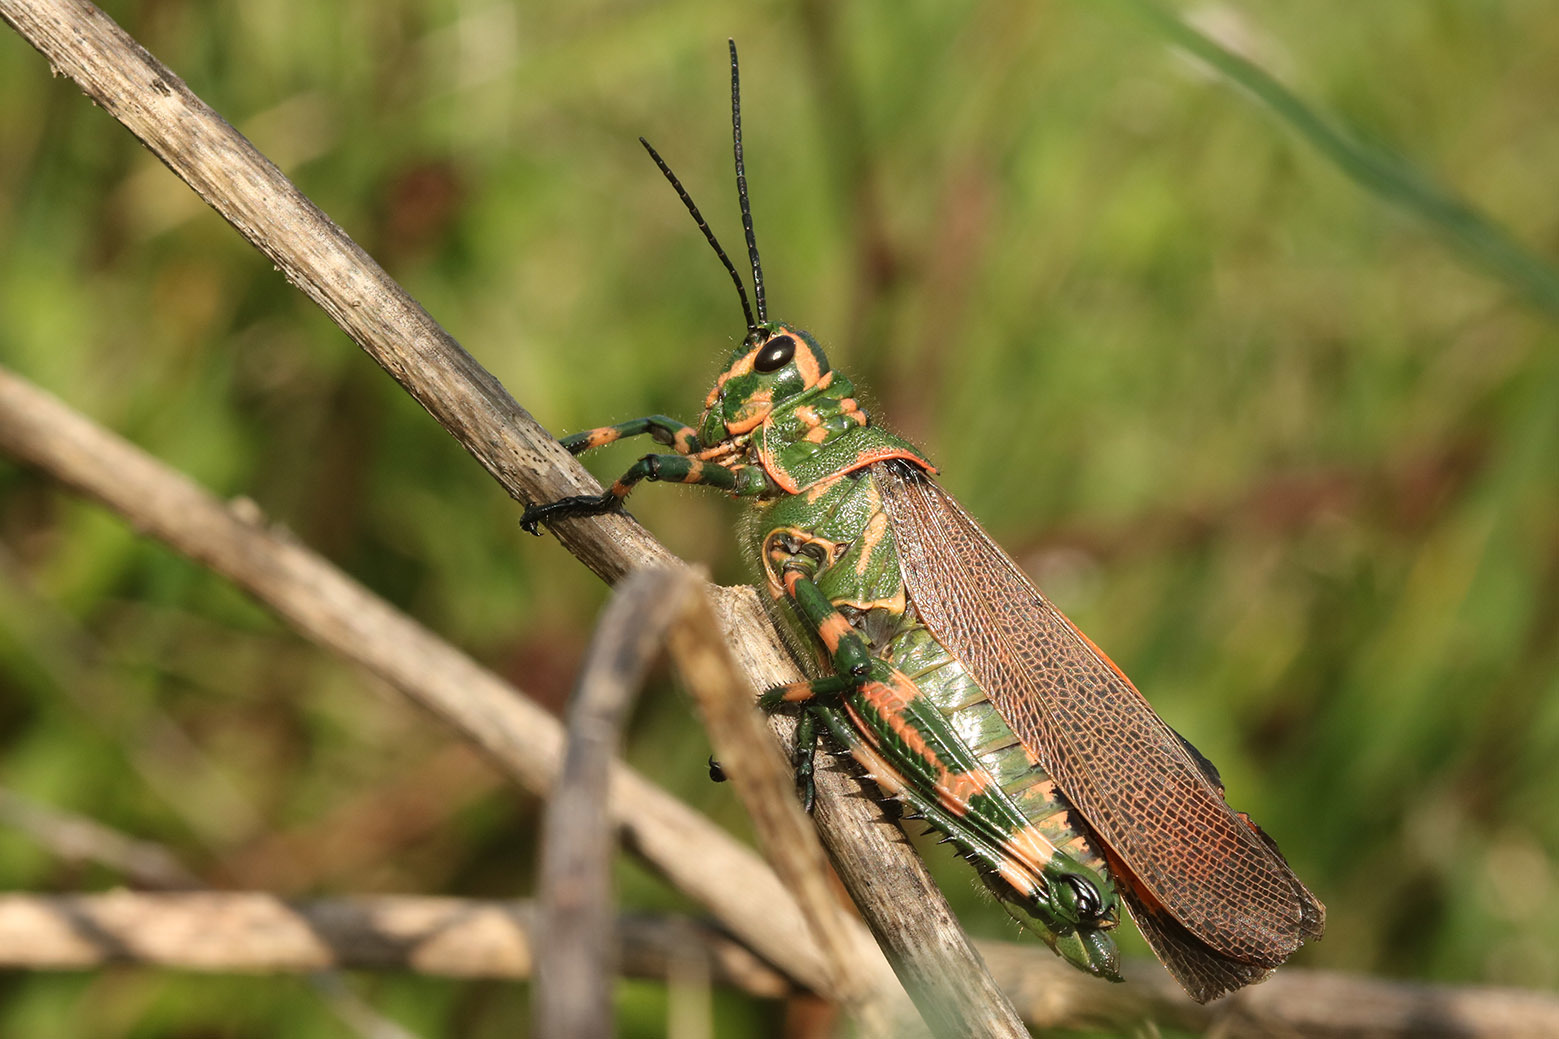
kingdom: Animalia
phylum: Arthropoda
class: Insecta
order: Orthoptera
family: Romaleidae
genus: Chromacris
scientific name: Chromacris speciosa
